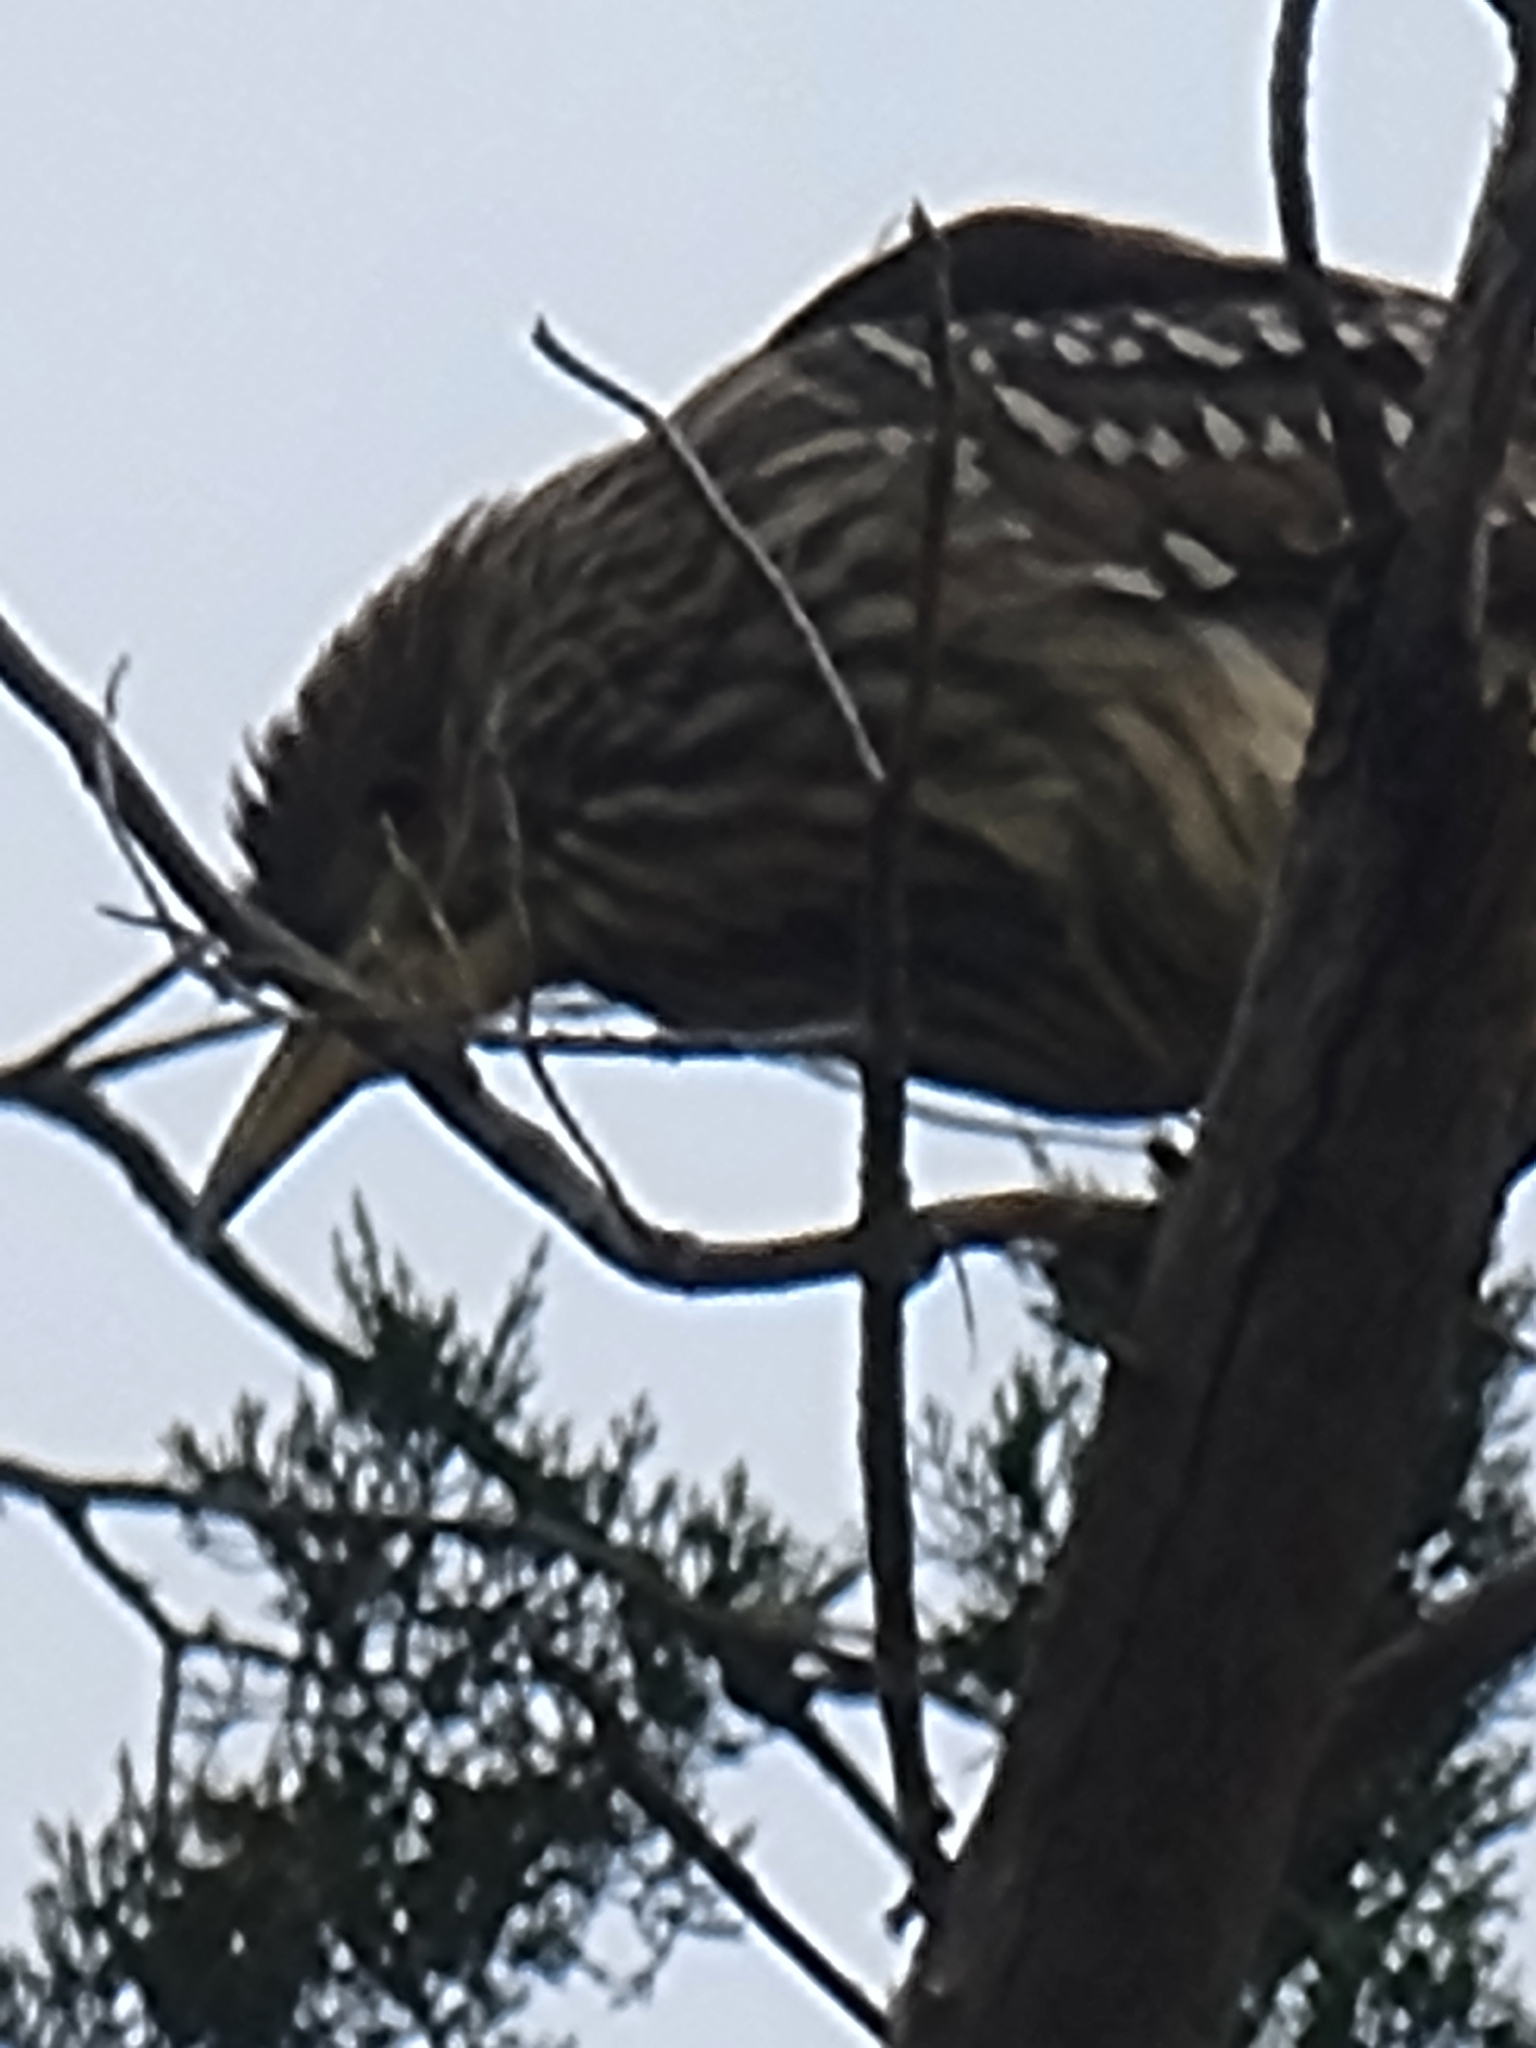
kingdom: Animalia
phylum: Chordata
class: Aves
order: Pelecaniformes
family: Ardeidae
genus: Nycticorax
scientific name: Nycticorax nycticorax
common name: Black-crowned night heron
